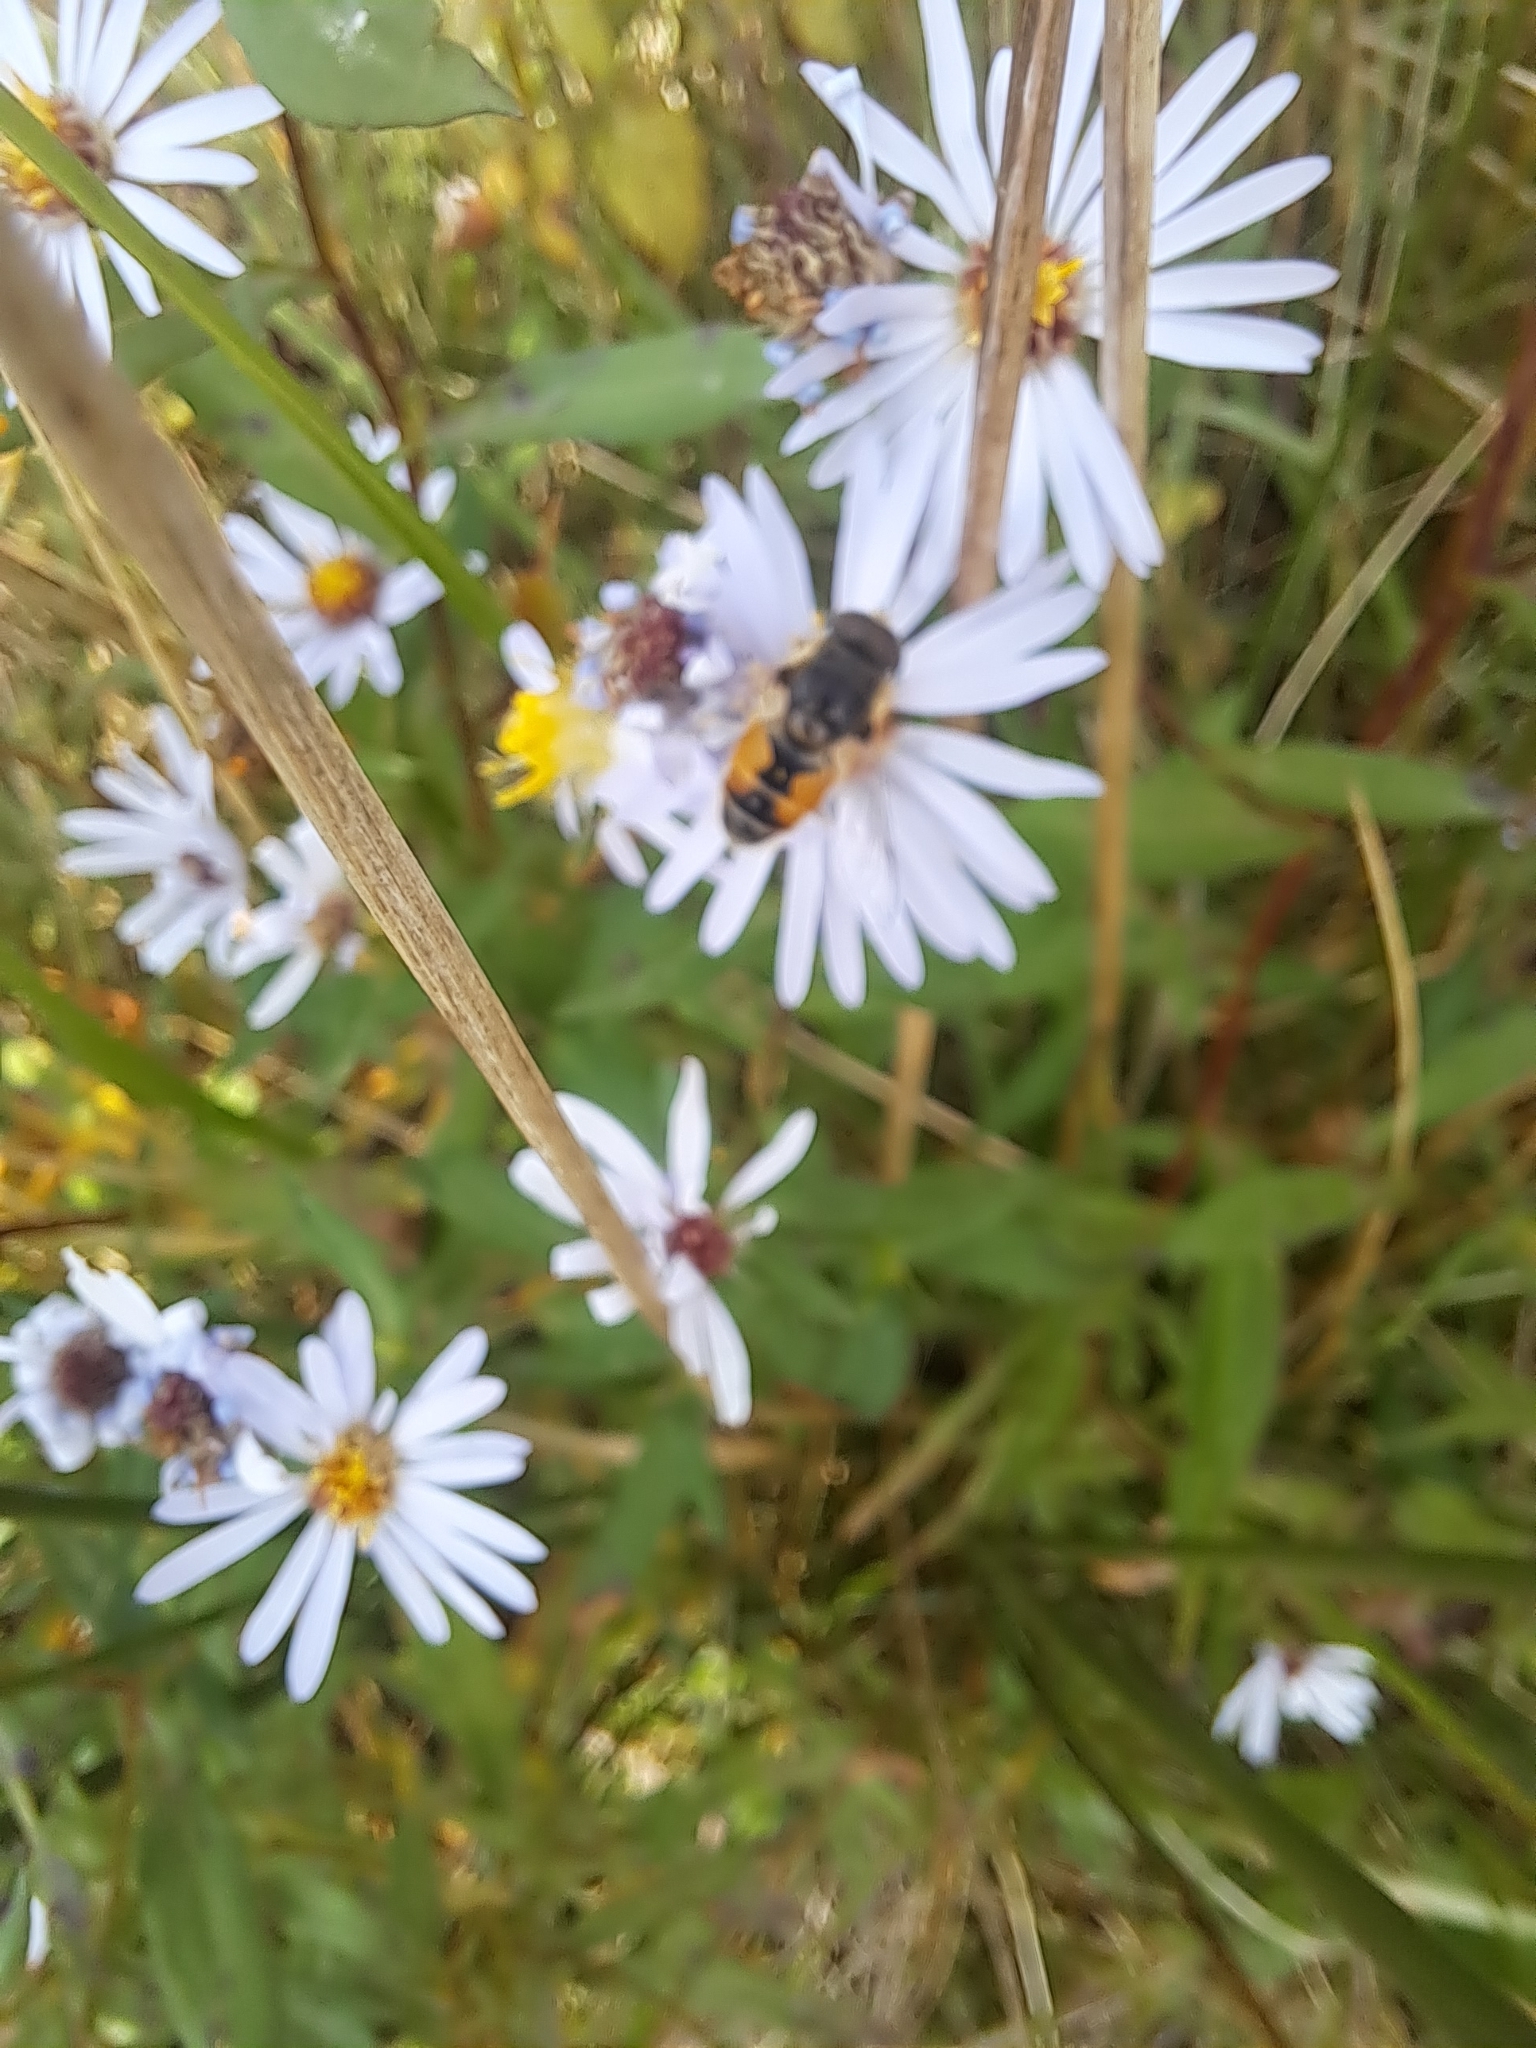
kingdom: Animalia
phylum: Arthropoda
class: Insecta
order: Diptera
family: Syrphidae
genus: Eristalis
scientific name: Eristalis arbustorum
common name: Hover fly
